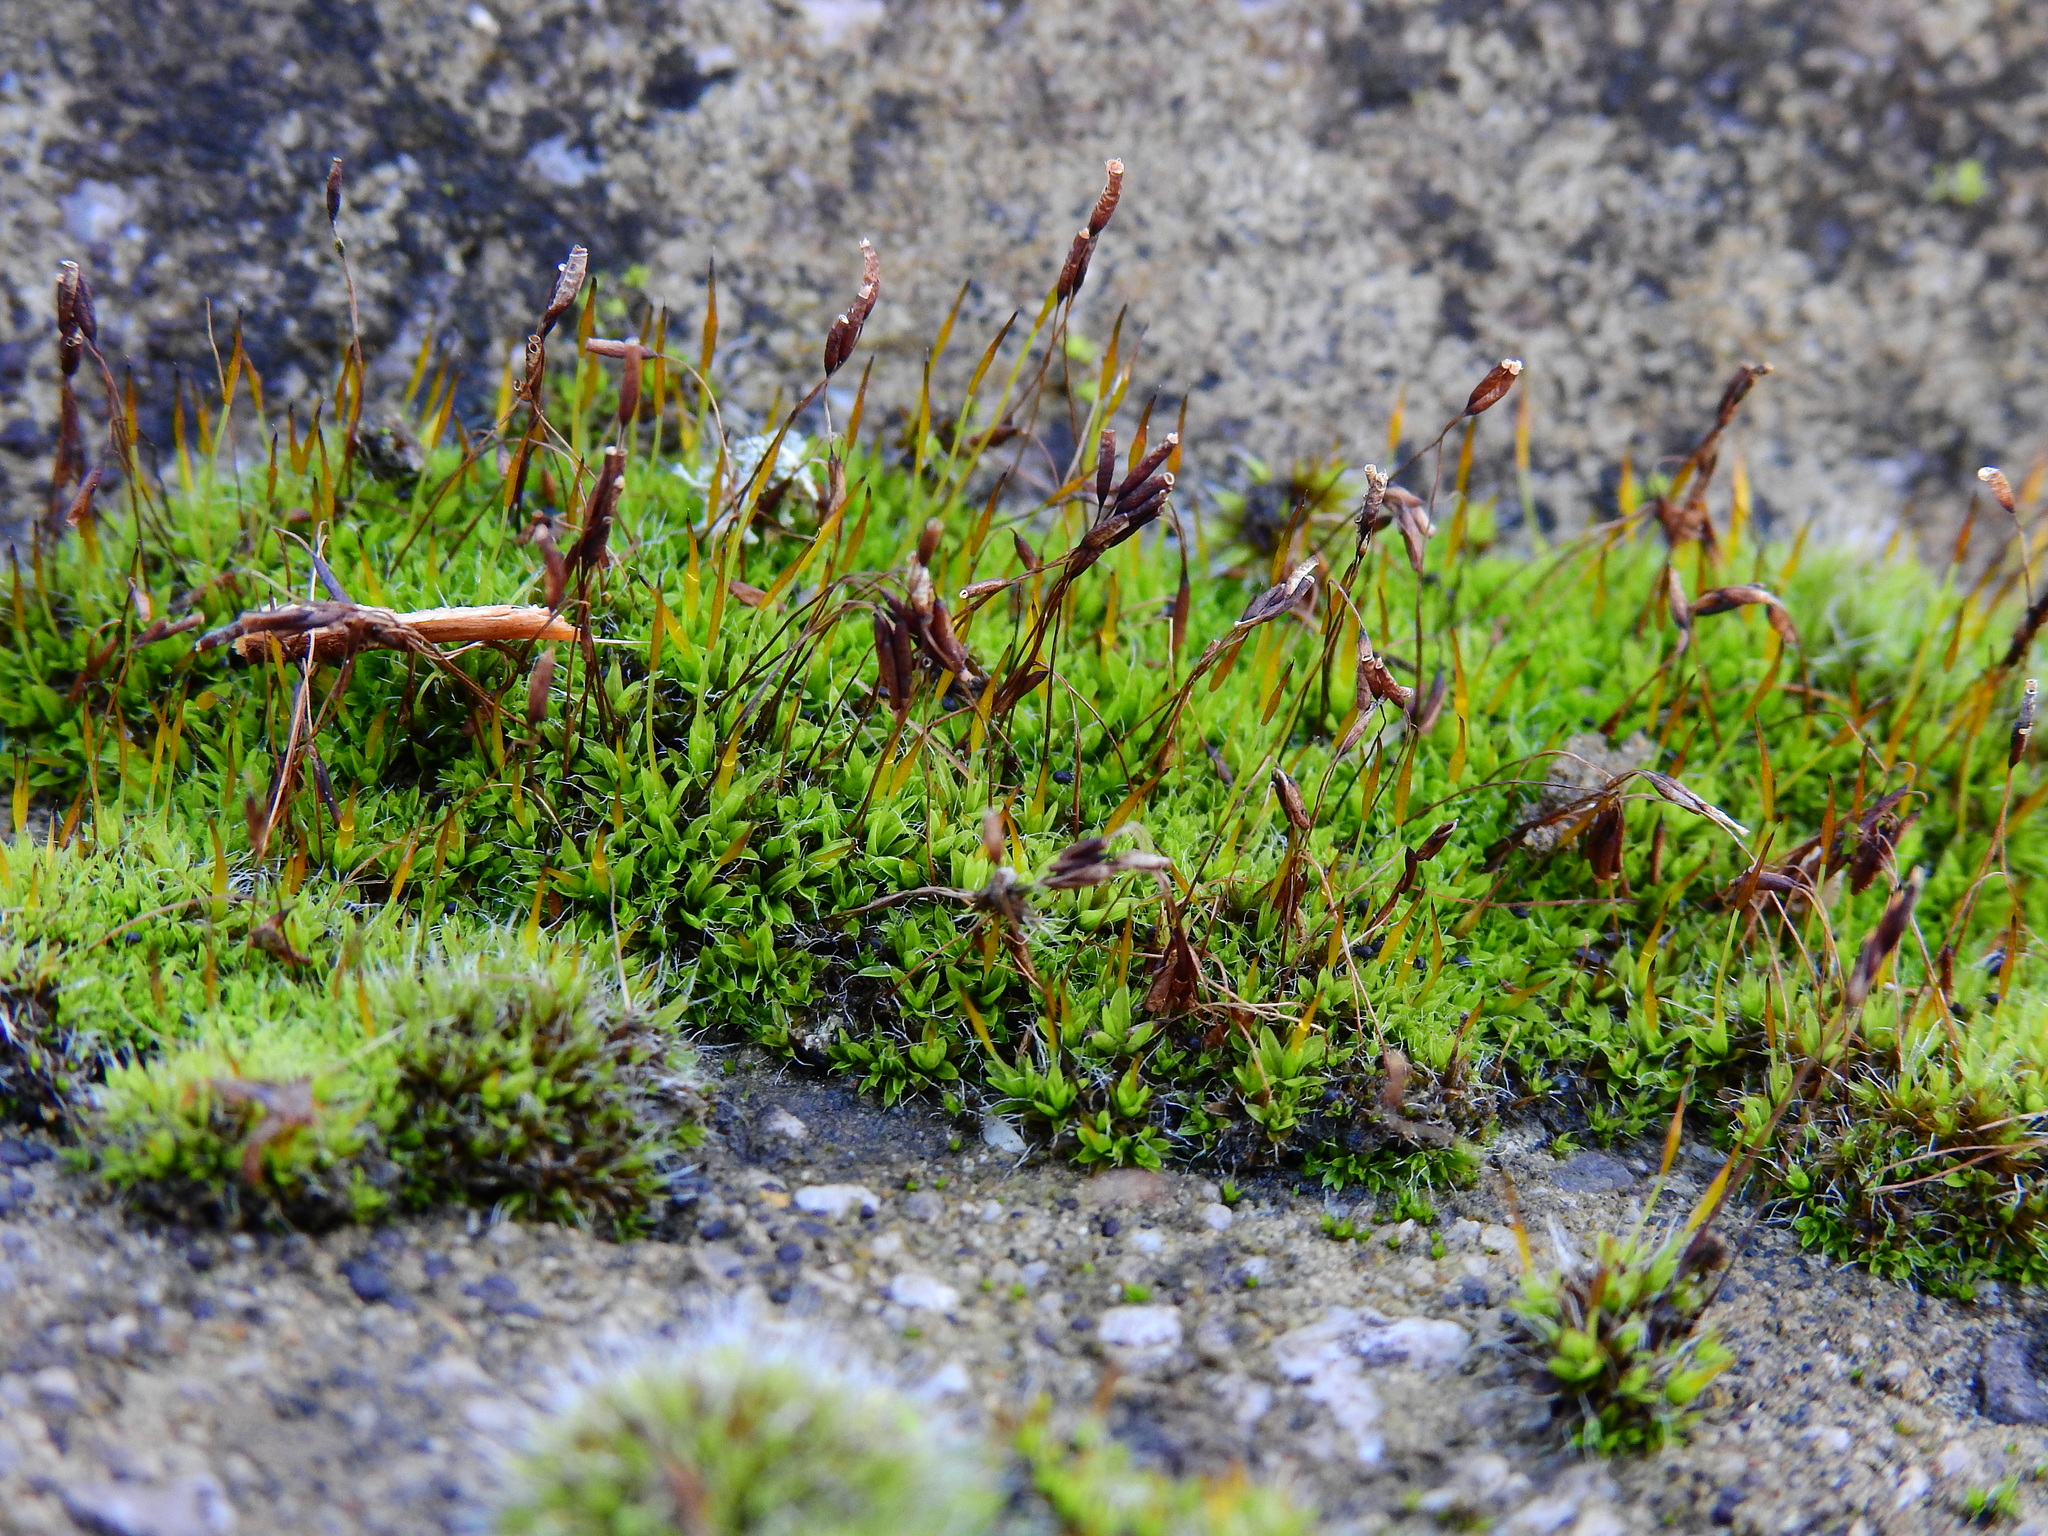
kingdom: Plantae
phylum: Bryophyta
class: Bryopsida
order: Pottiales
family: Pottiaceae
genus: Tortula
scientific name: Tortula muralis
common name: Wall screw-moss
